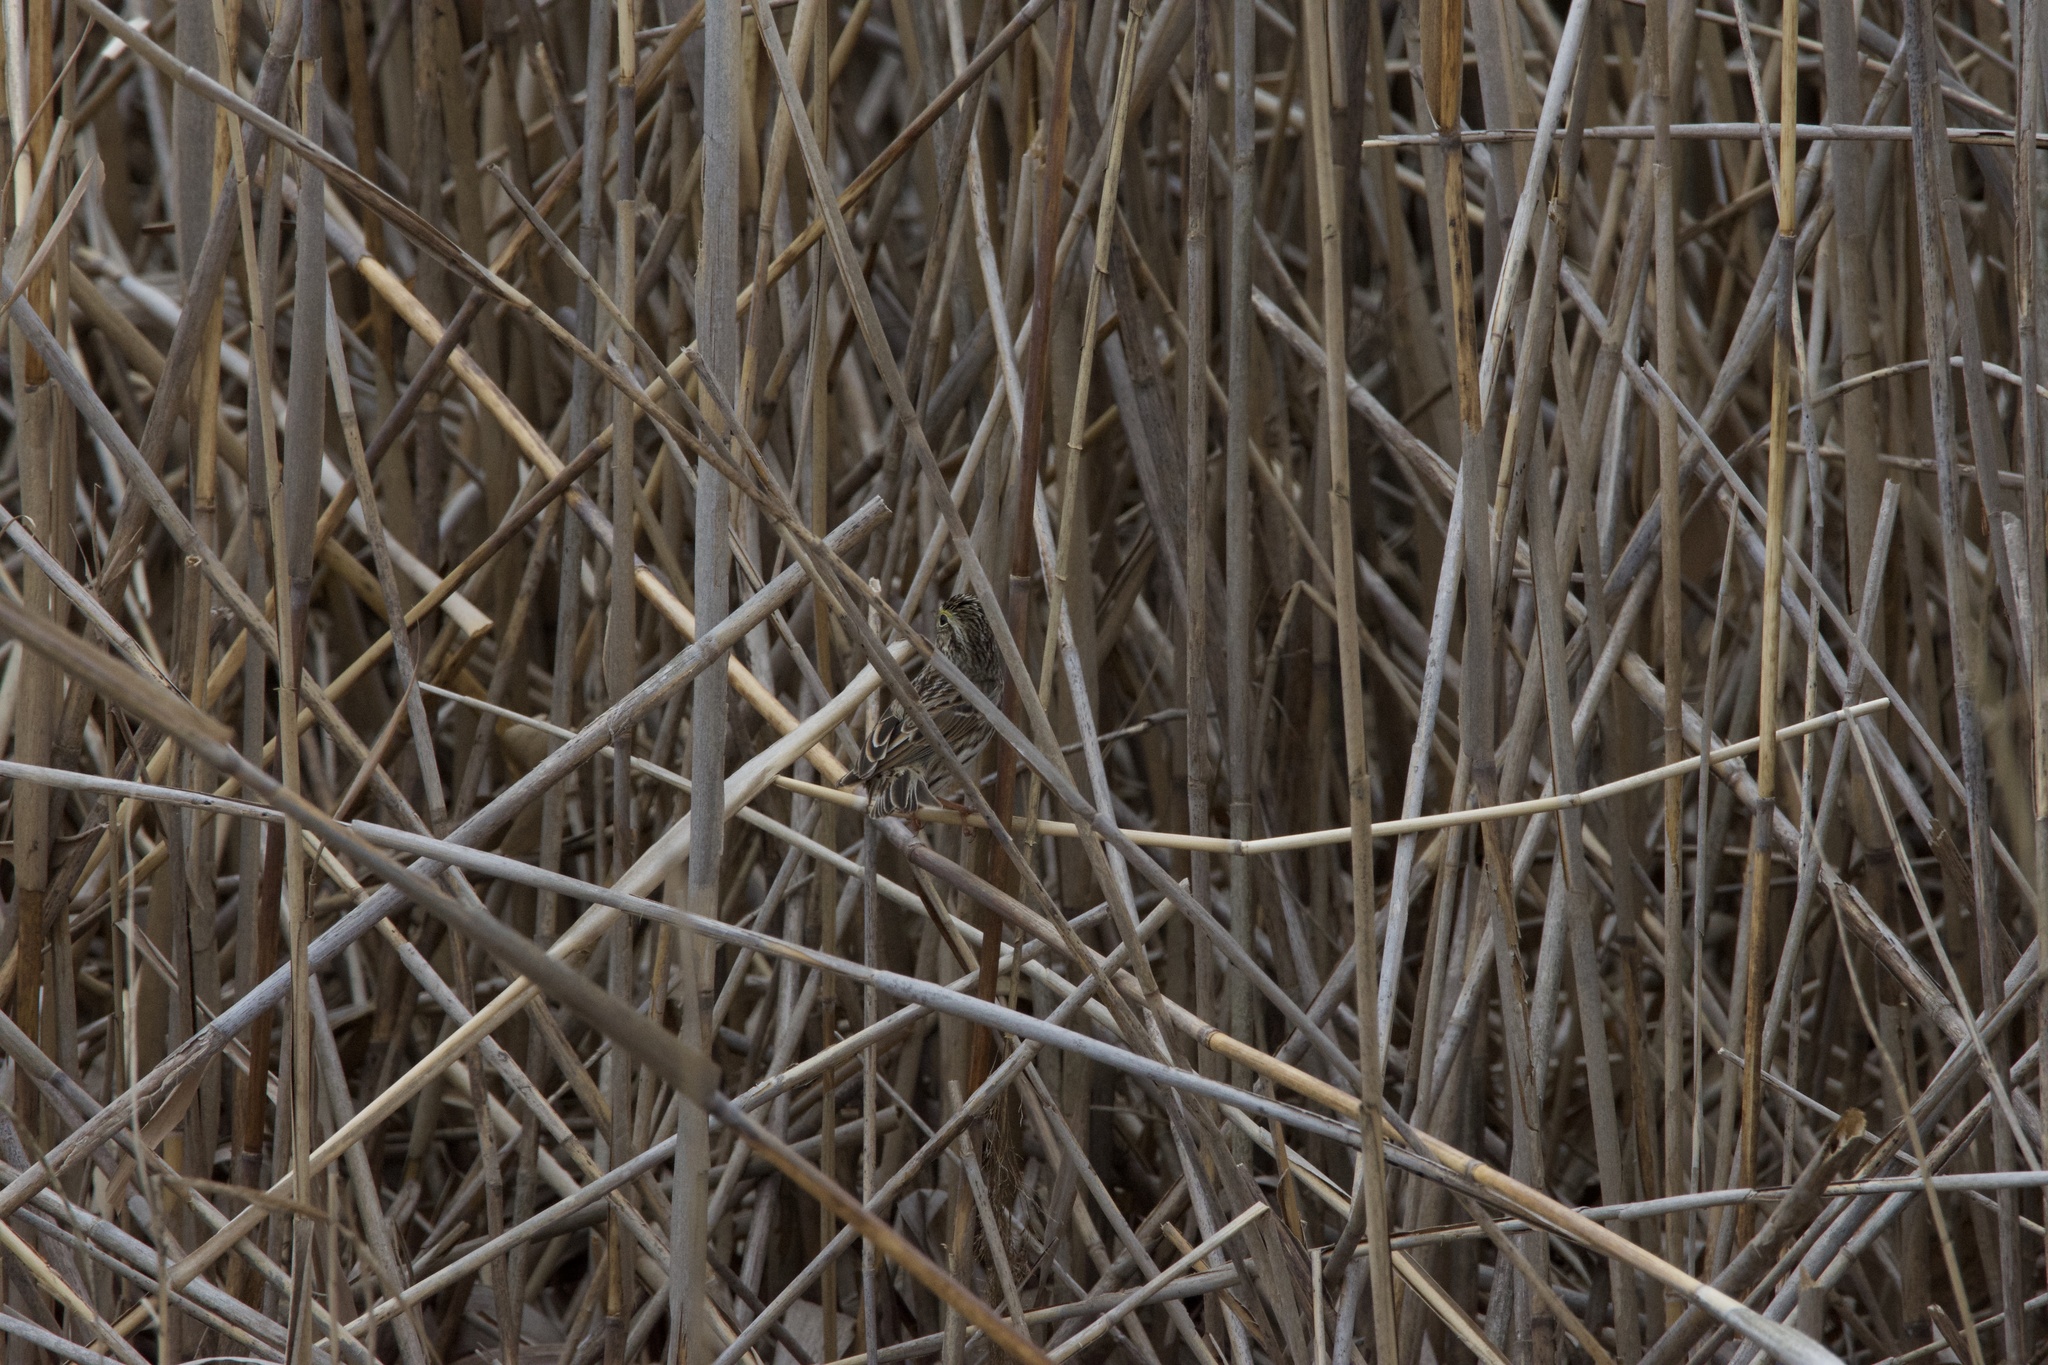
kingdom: Animalia
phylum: Chordata
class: Aves
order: Passeriformes
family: Passerellidae
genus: Passerculus
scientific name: Passerculus sandwichensis
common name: Savannah sparrow
